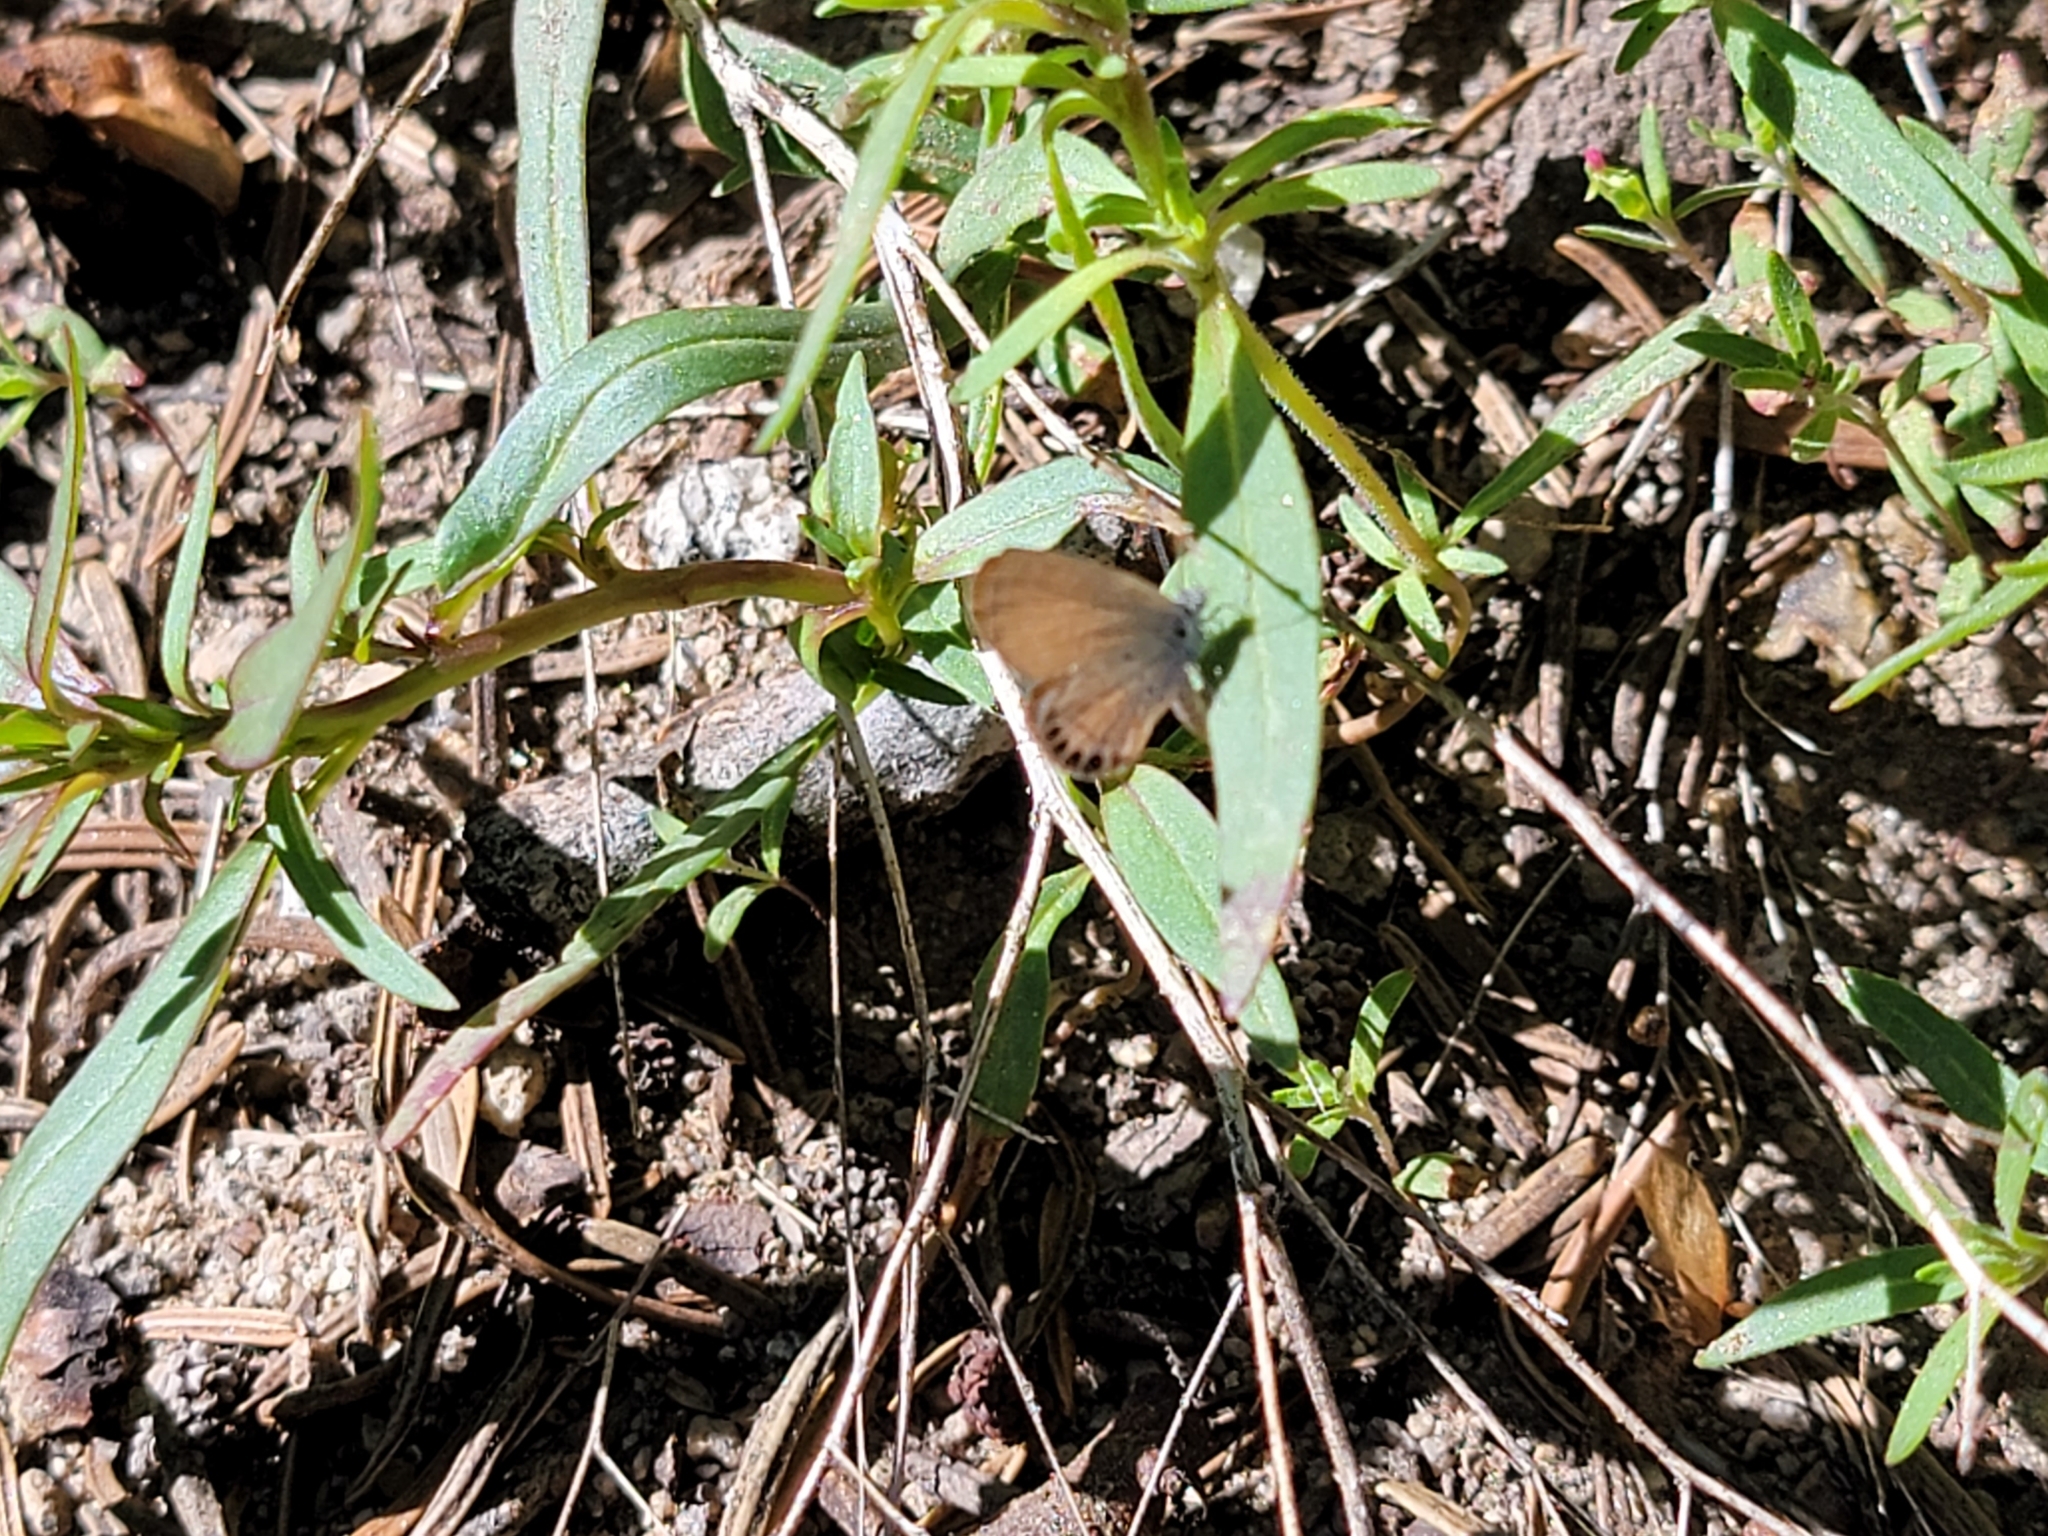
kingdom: Animalia
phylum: Arthropoda
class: Insecta
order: Lepidoptera
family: Lycaenidae
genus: Brephidium
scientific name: Brephidium exilis
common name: Pygmy blue
